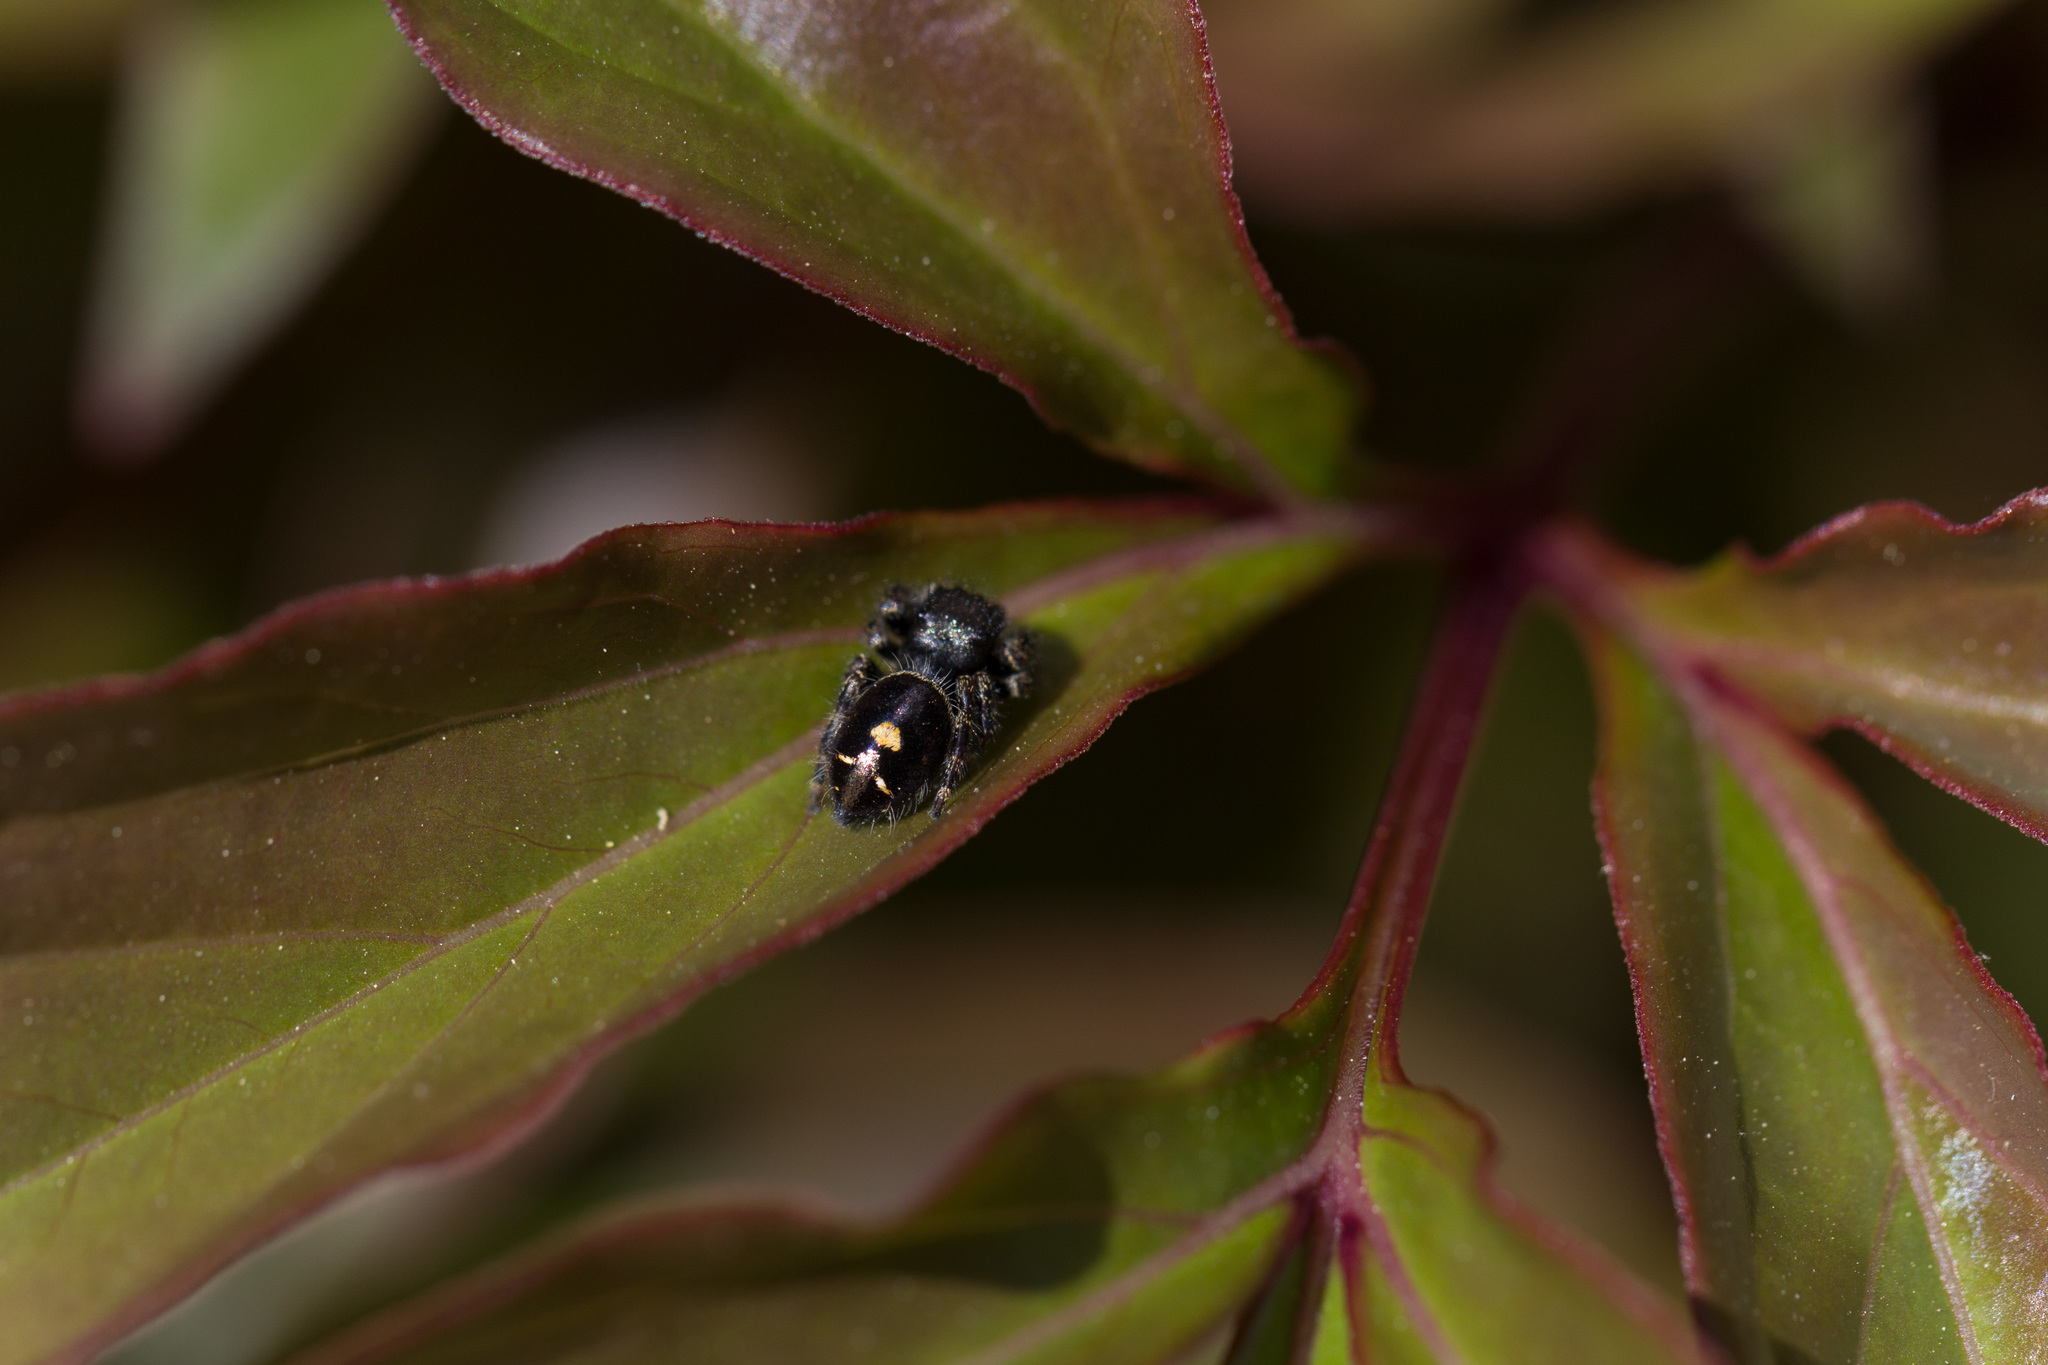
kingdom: Animalia
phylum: Arthropoda
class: Arachnida
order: Araneae
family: Salticidae
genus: Phidippus
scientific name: Phidippus audax
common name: Bold jumper
